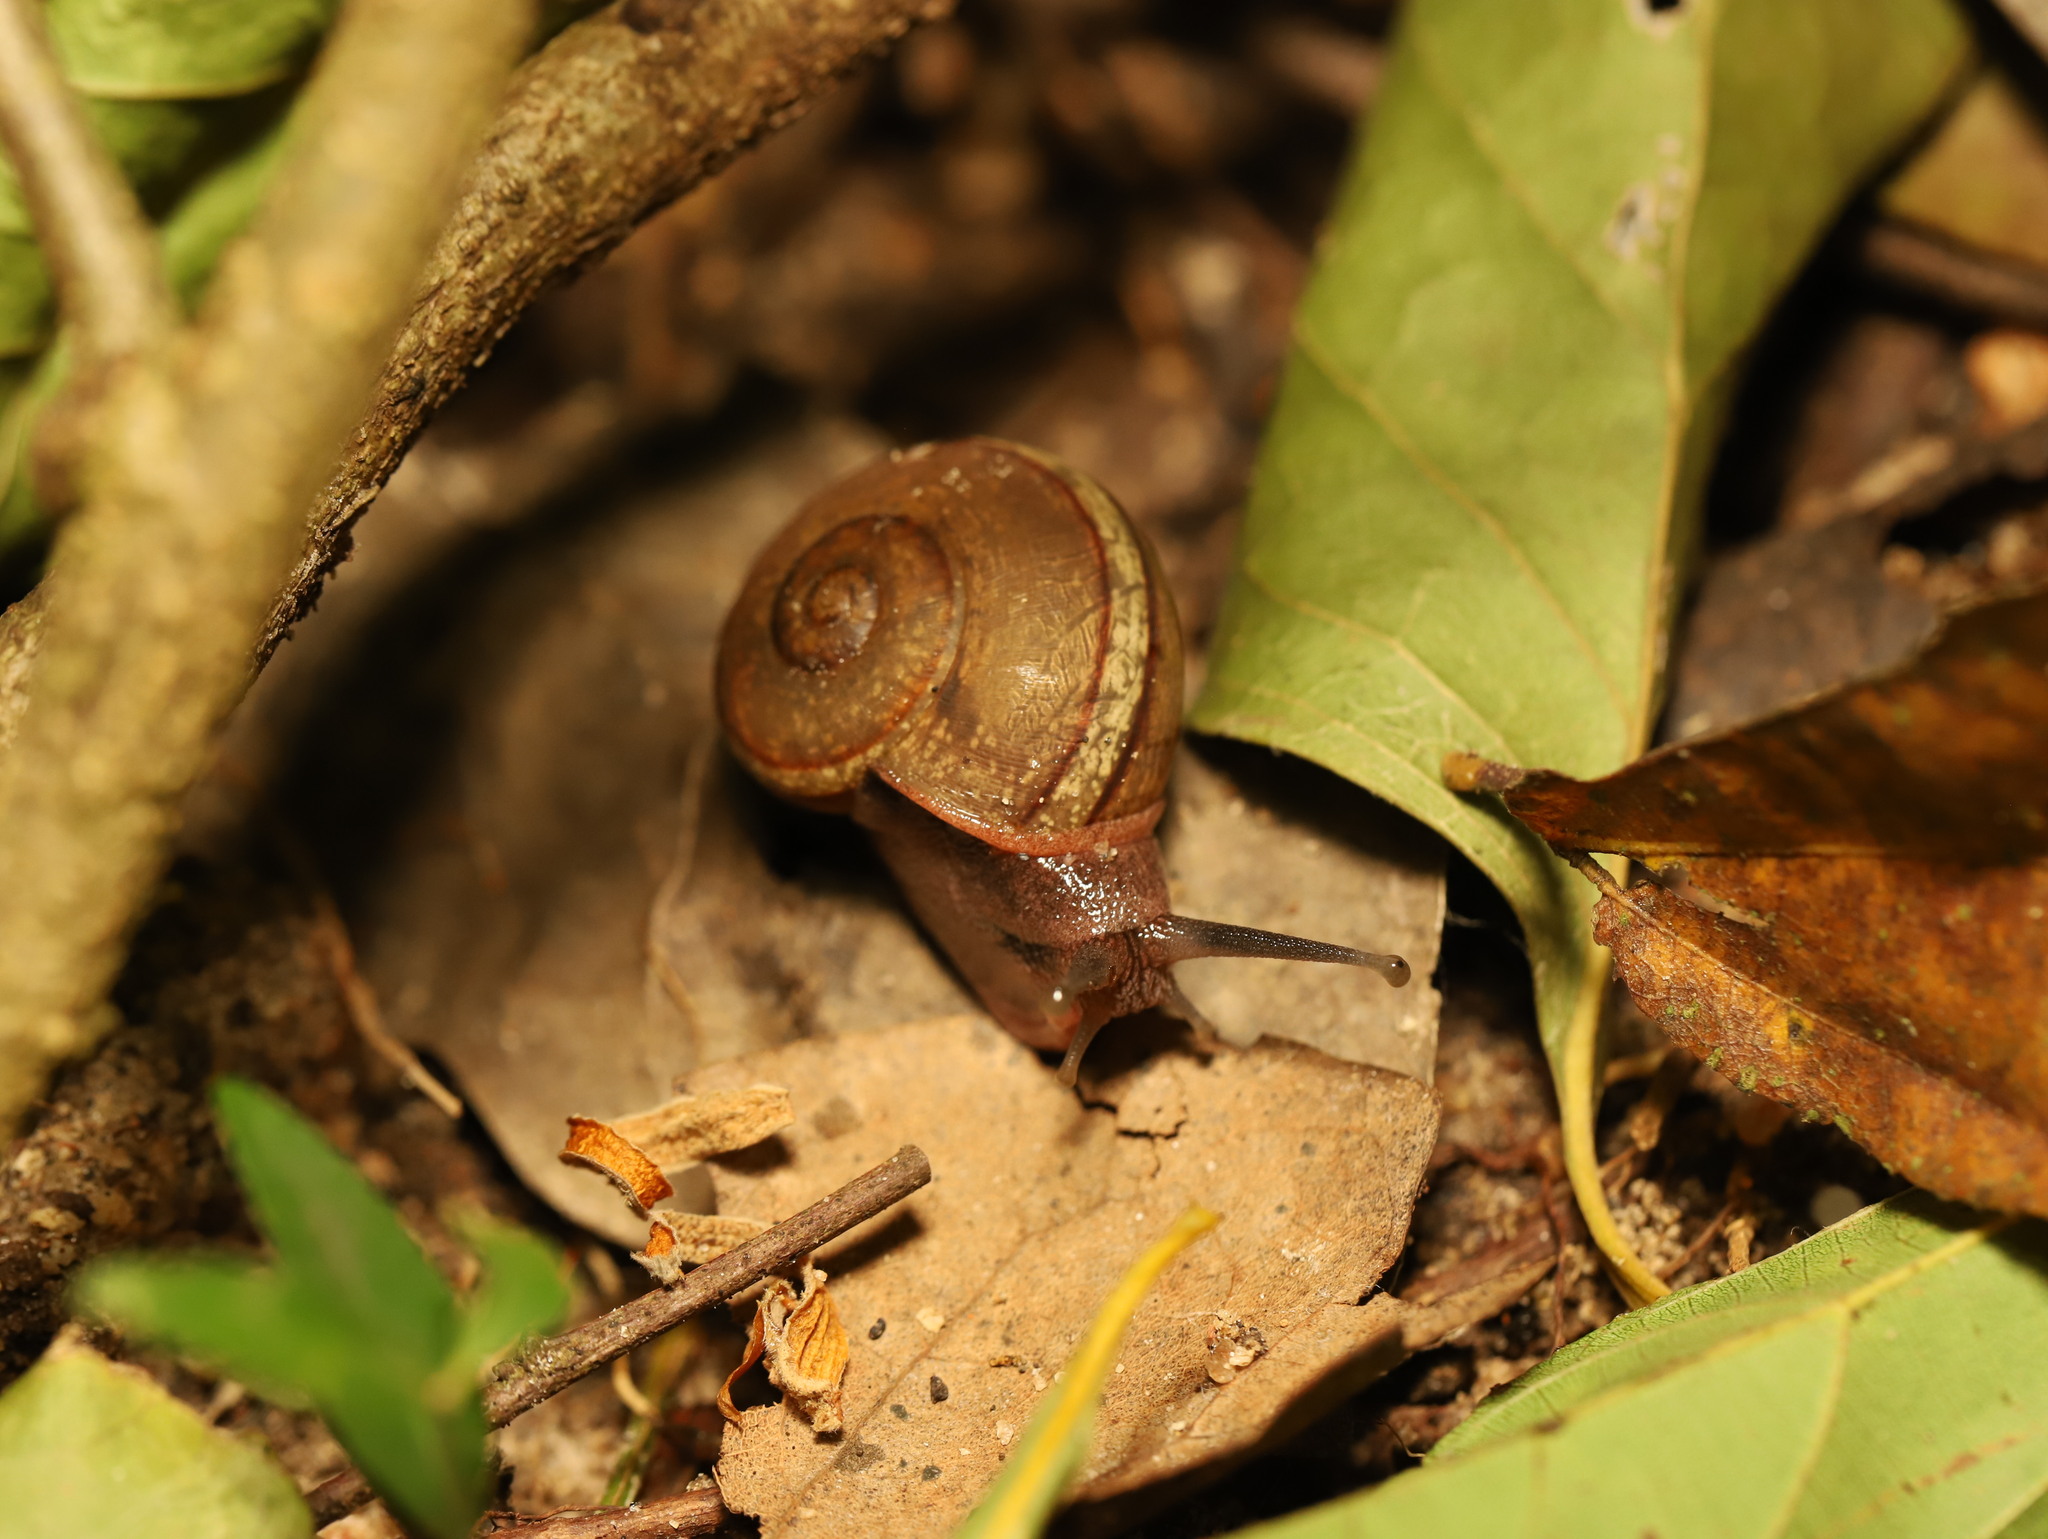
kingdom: Animalia
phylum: Mollusca
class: Gastropoda
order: Stylommatophora
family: Ariophantidae
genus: Ariophanta
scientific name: Ariophanta exilis
